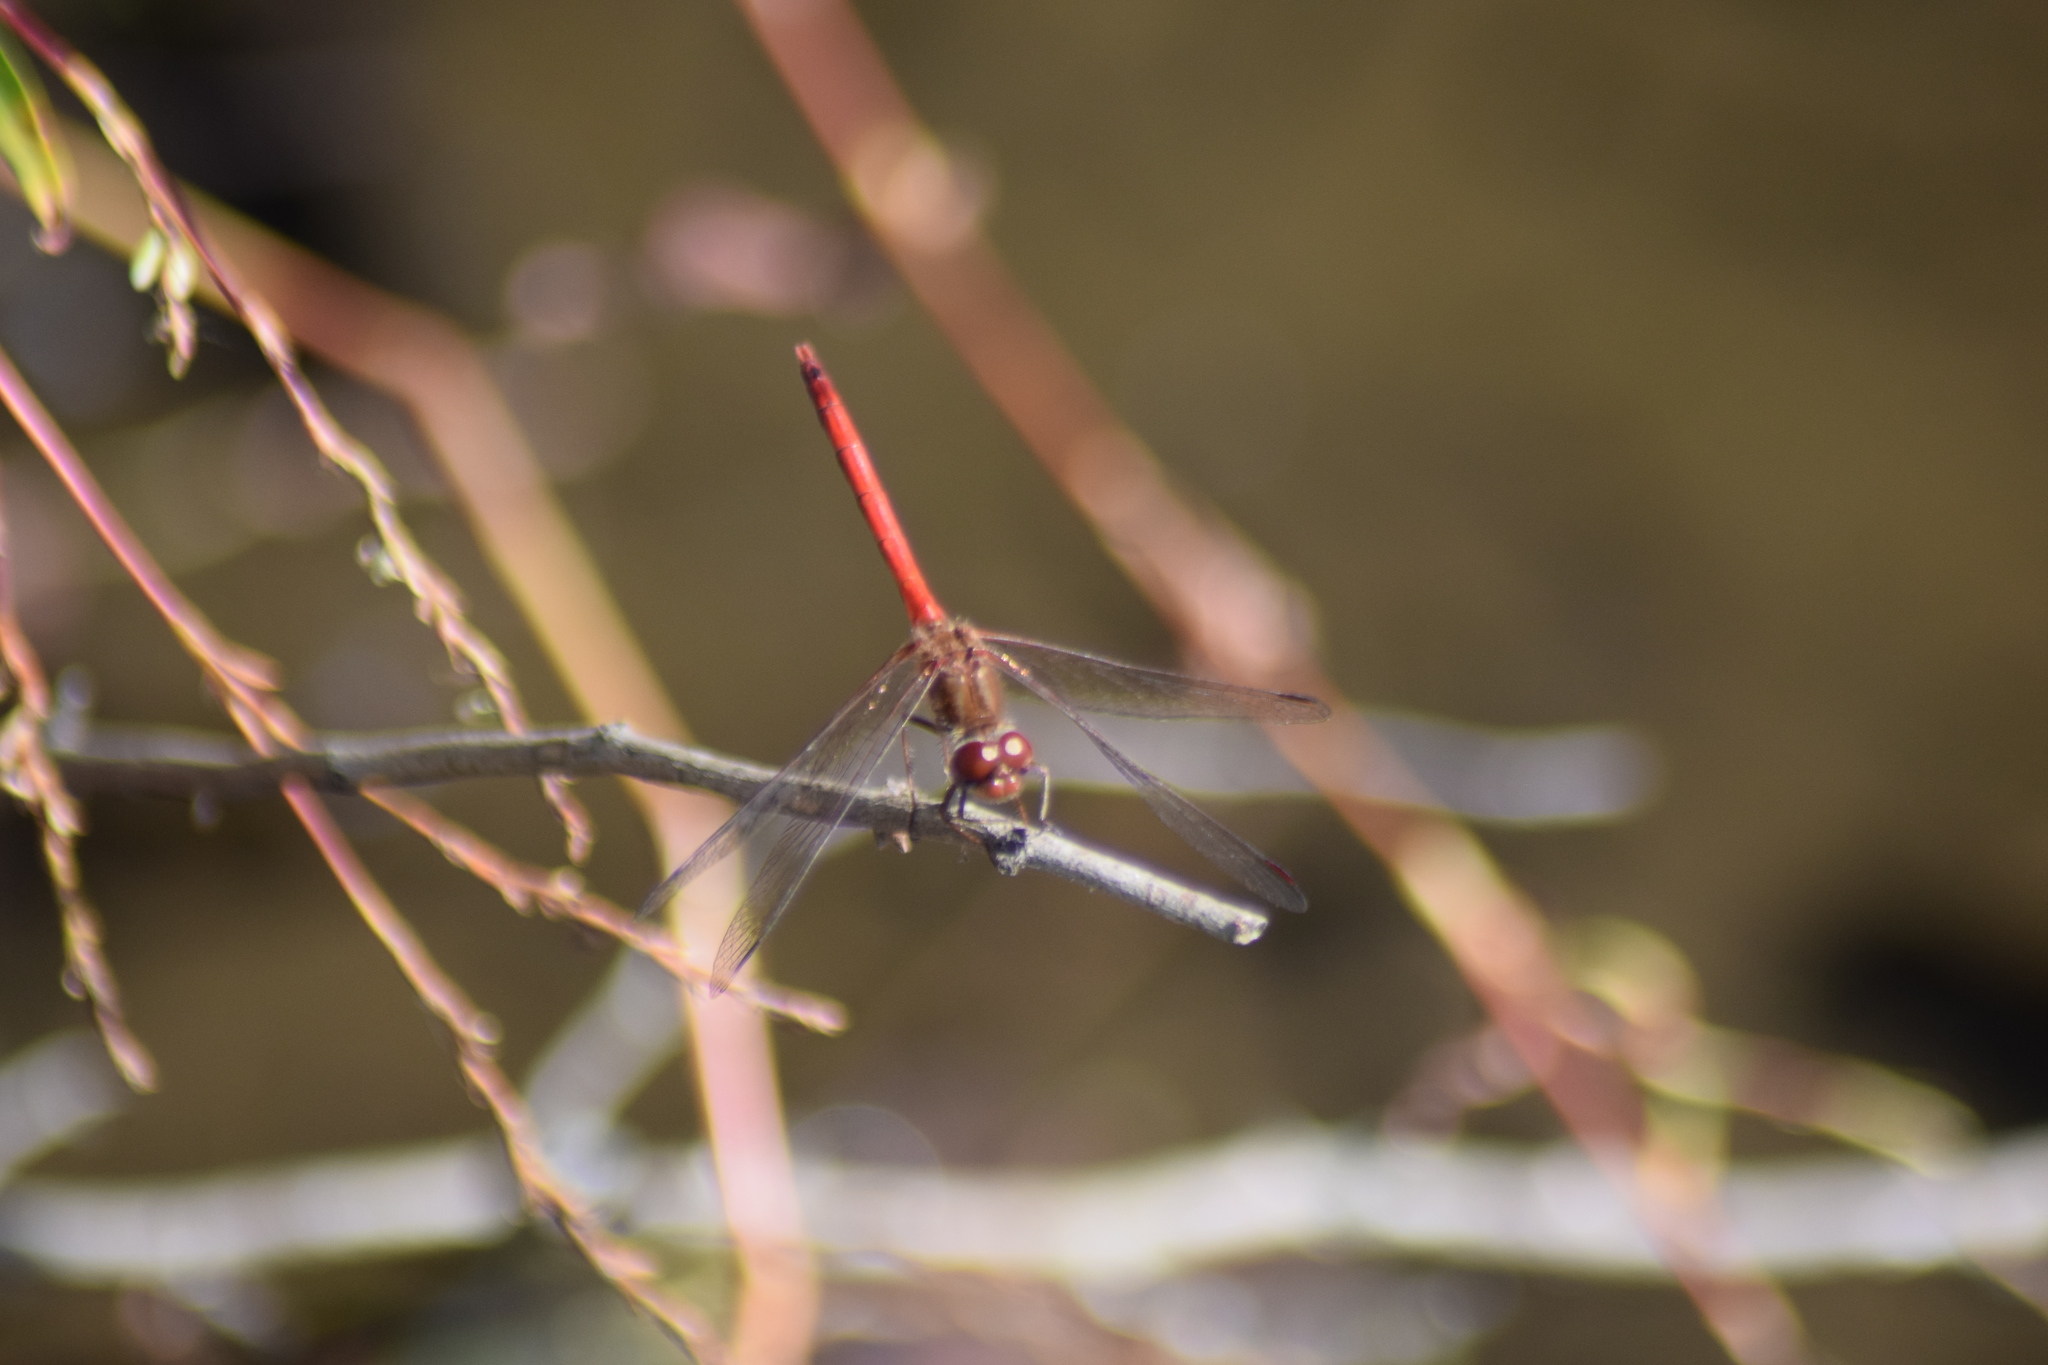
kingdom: Animalia
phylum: Arthropoda
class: Insecta
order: Odonata
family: Libellulidae
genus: Sympetrum
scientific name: Sympetrum vicinum
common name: Autumn meadowhawk
